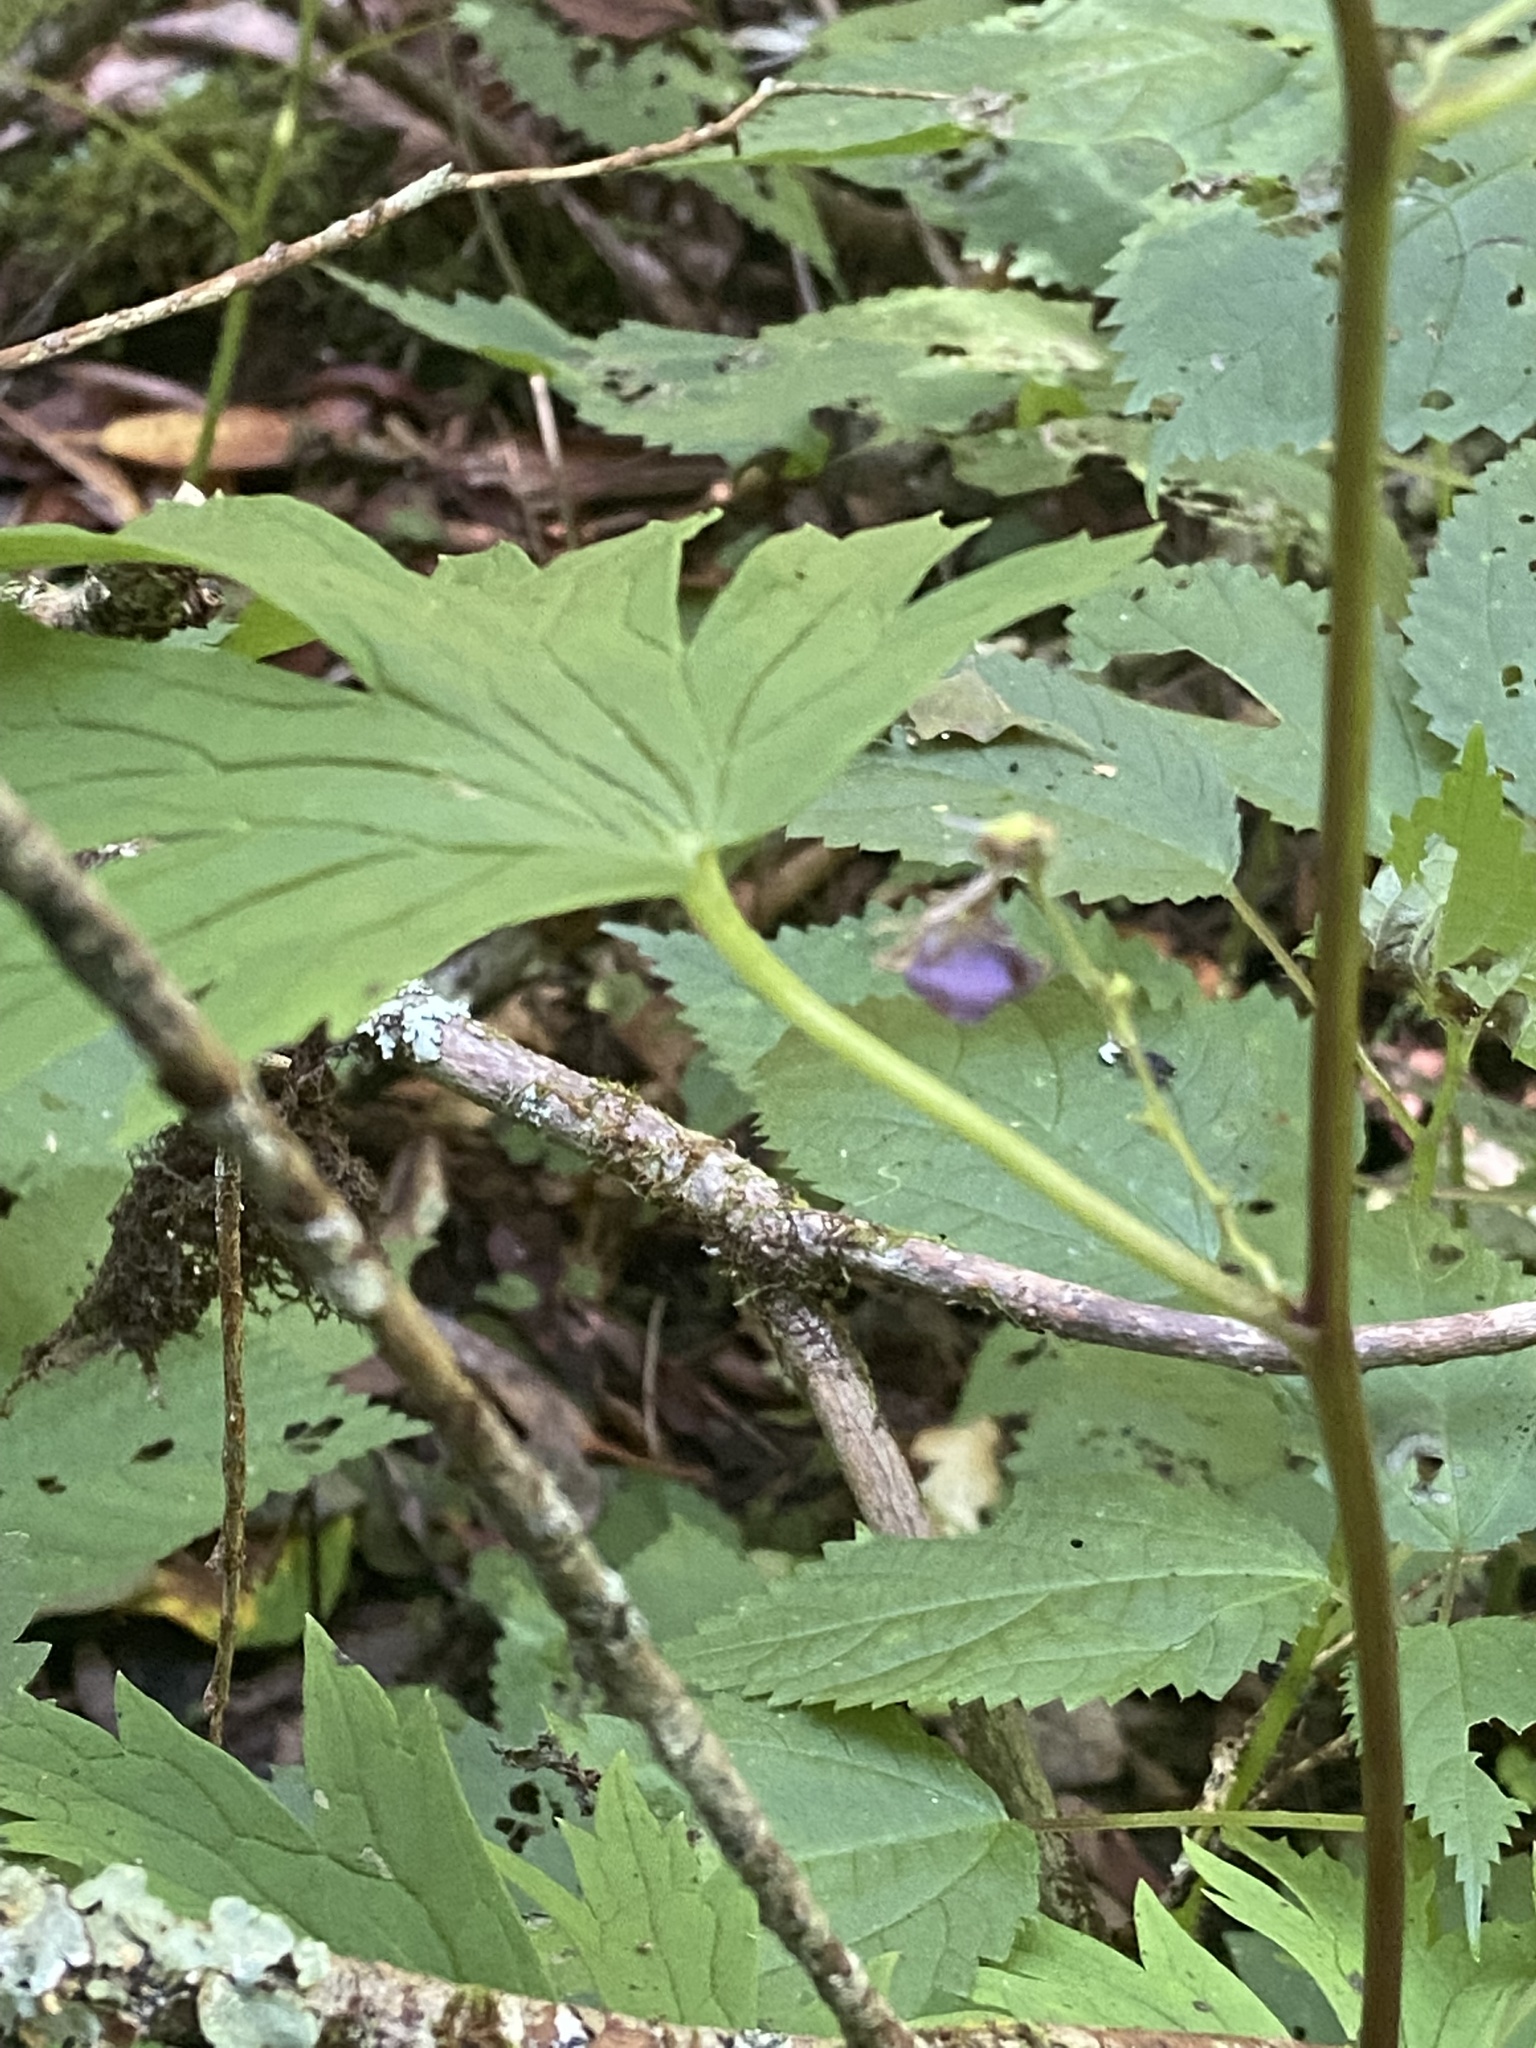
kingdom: Plantae
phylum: Tracheophyta
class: Magnoliopsida
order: Ranunculales
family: Ranunculaceae
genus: Aconitum
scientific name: Aconitum uncinatum
